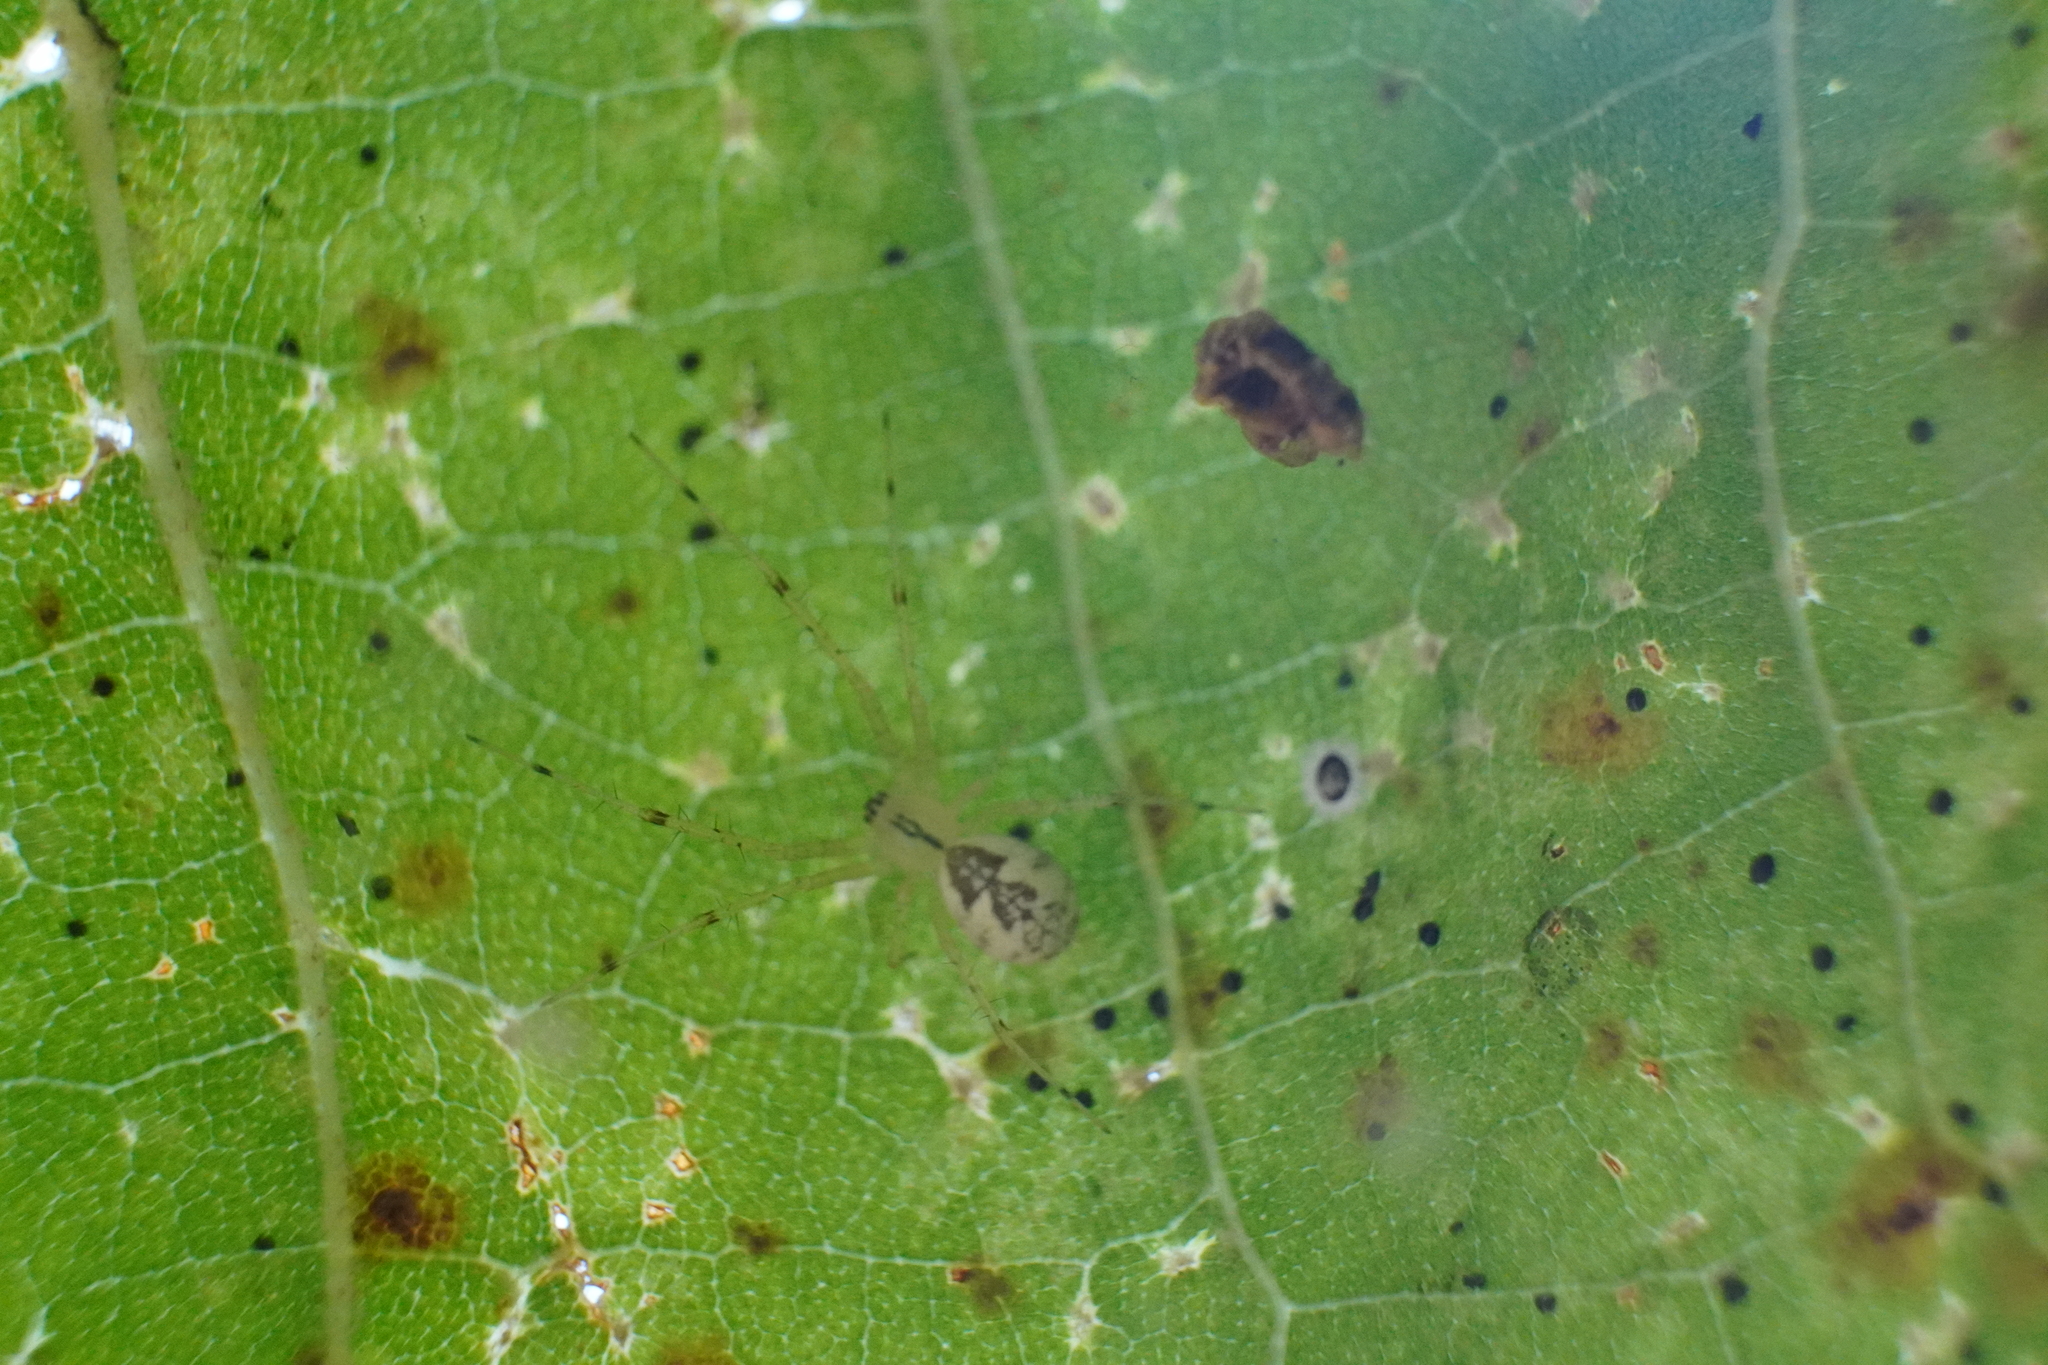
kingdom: Animalia
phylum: Arthropoda
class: Arachnida
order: Araneae
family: Linyphiidae
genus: Pityohyphantes
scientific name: Pityohyphantes costatus
